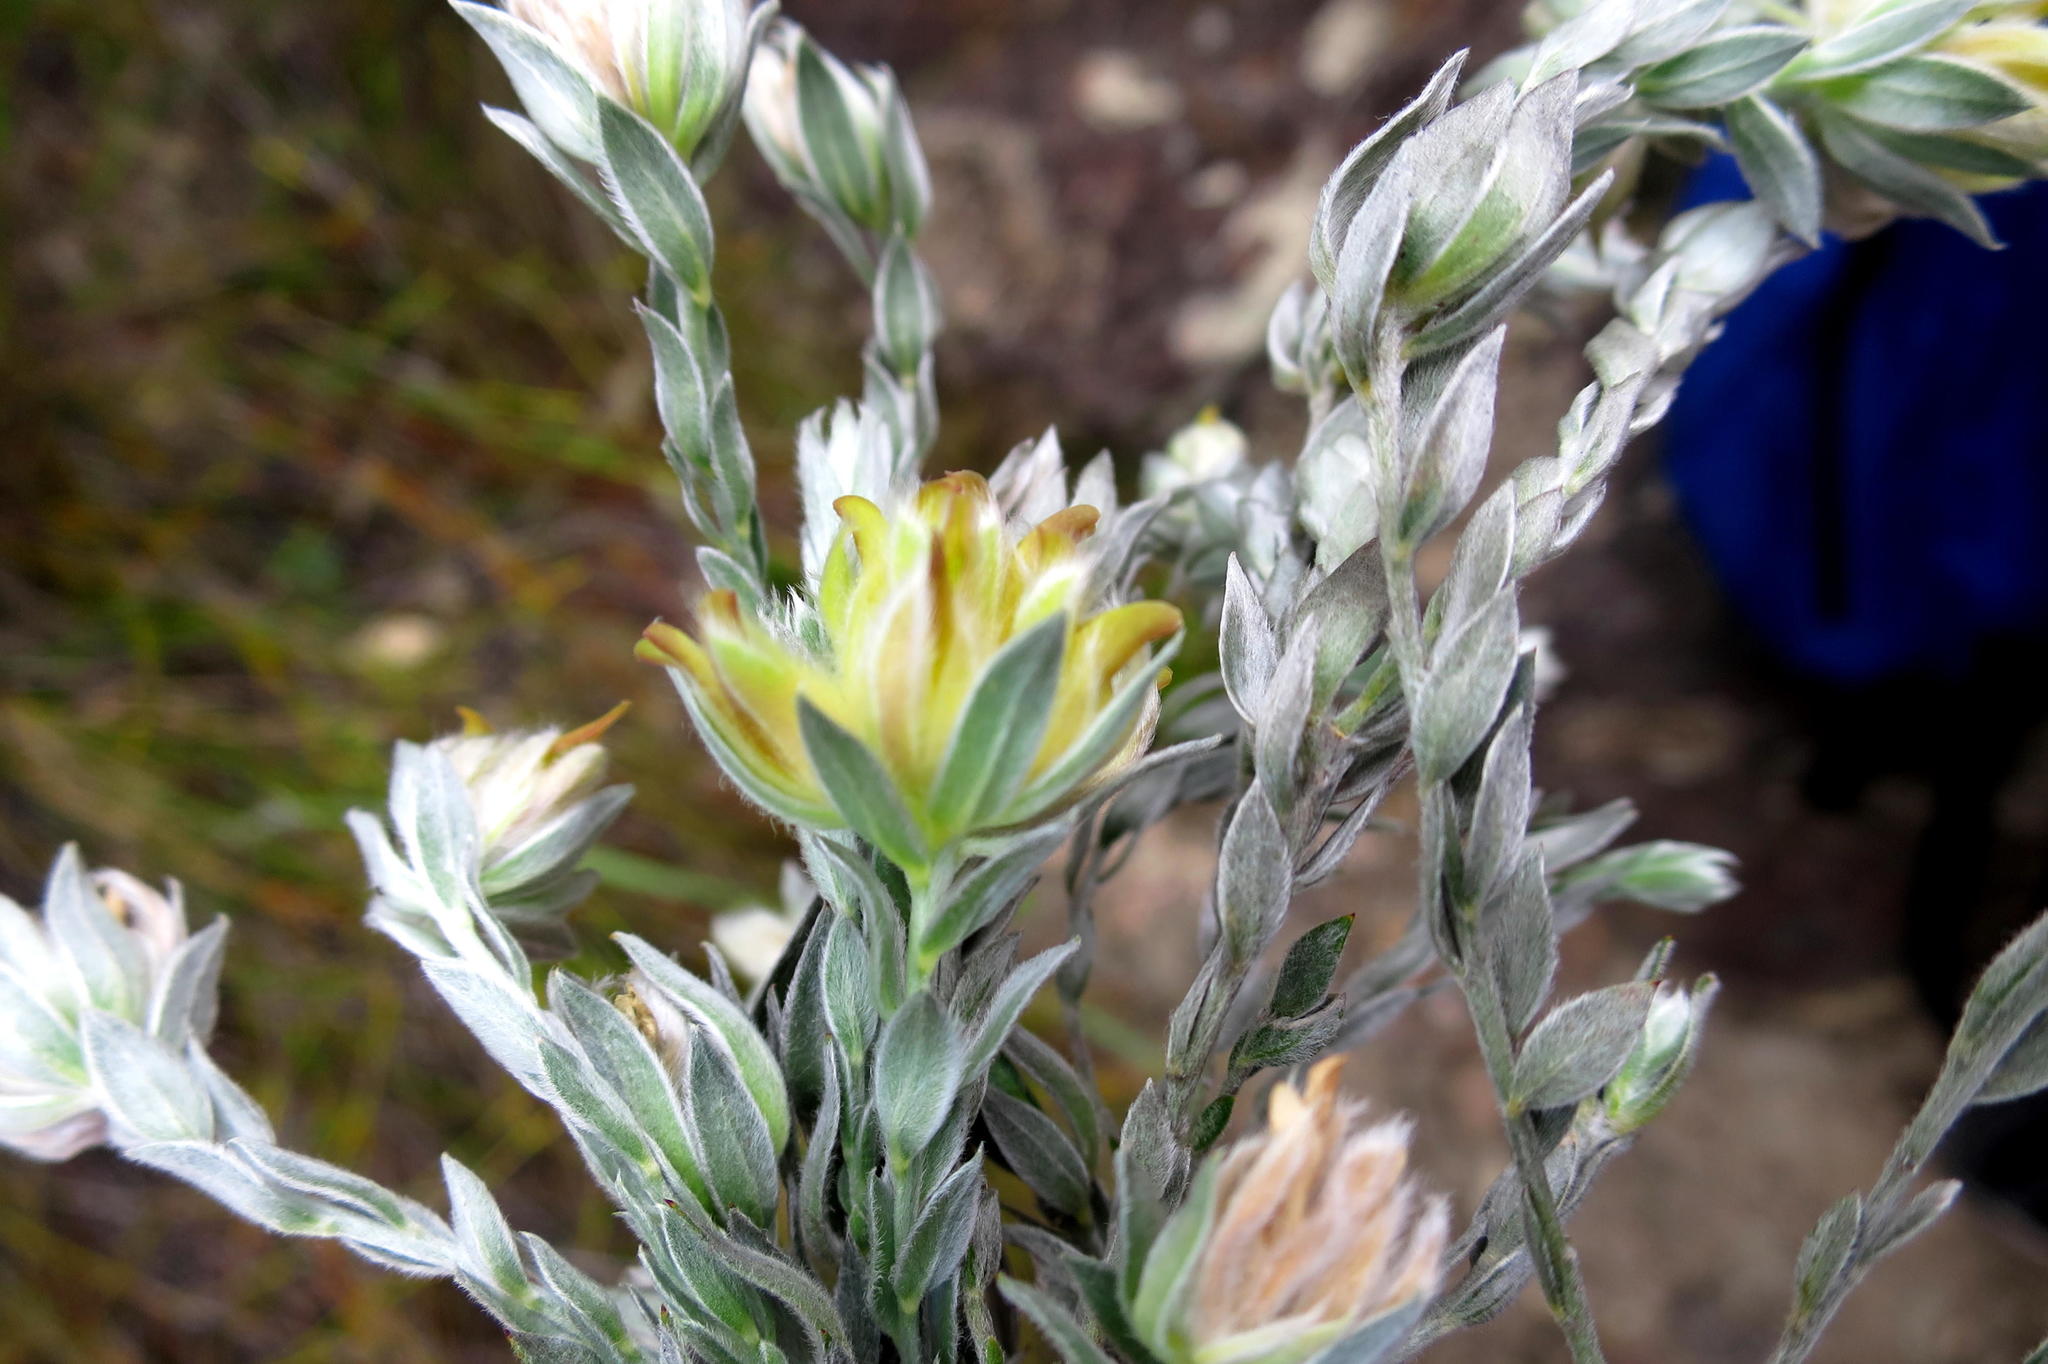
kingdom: Plantae
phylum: Tracheophyta
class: Magnoliopsida
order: Fabales
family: Fabaceae
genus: Amphithalea
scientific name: Amphithalea tomentosa
